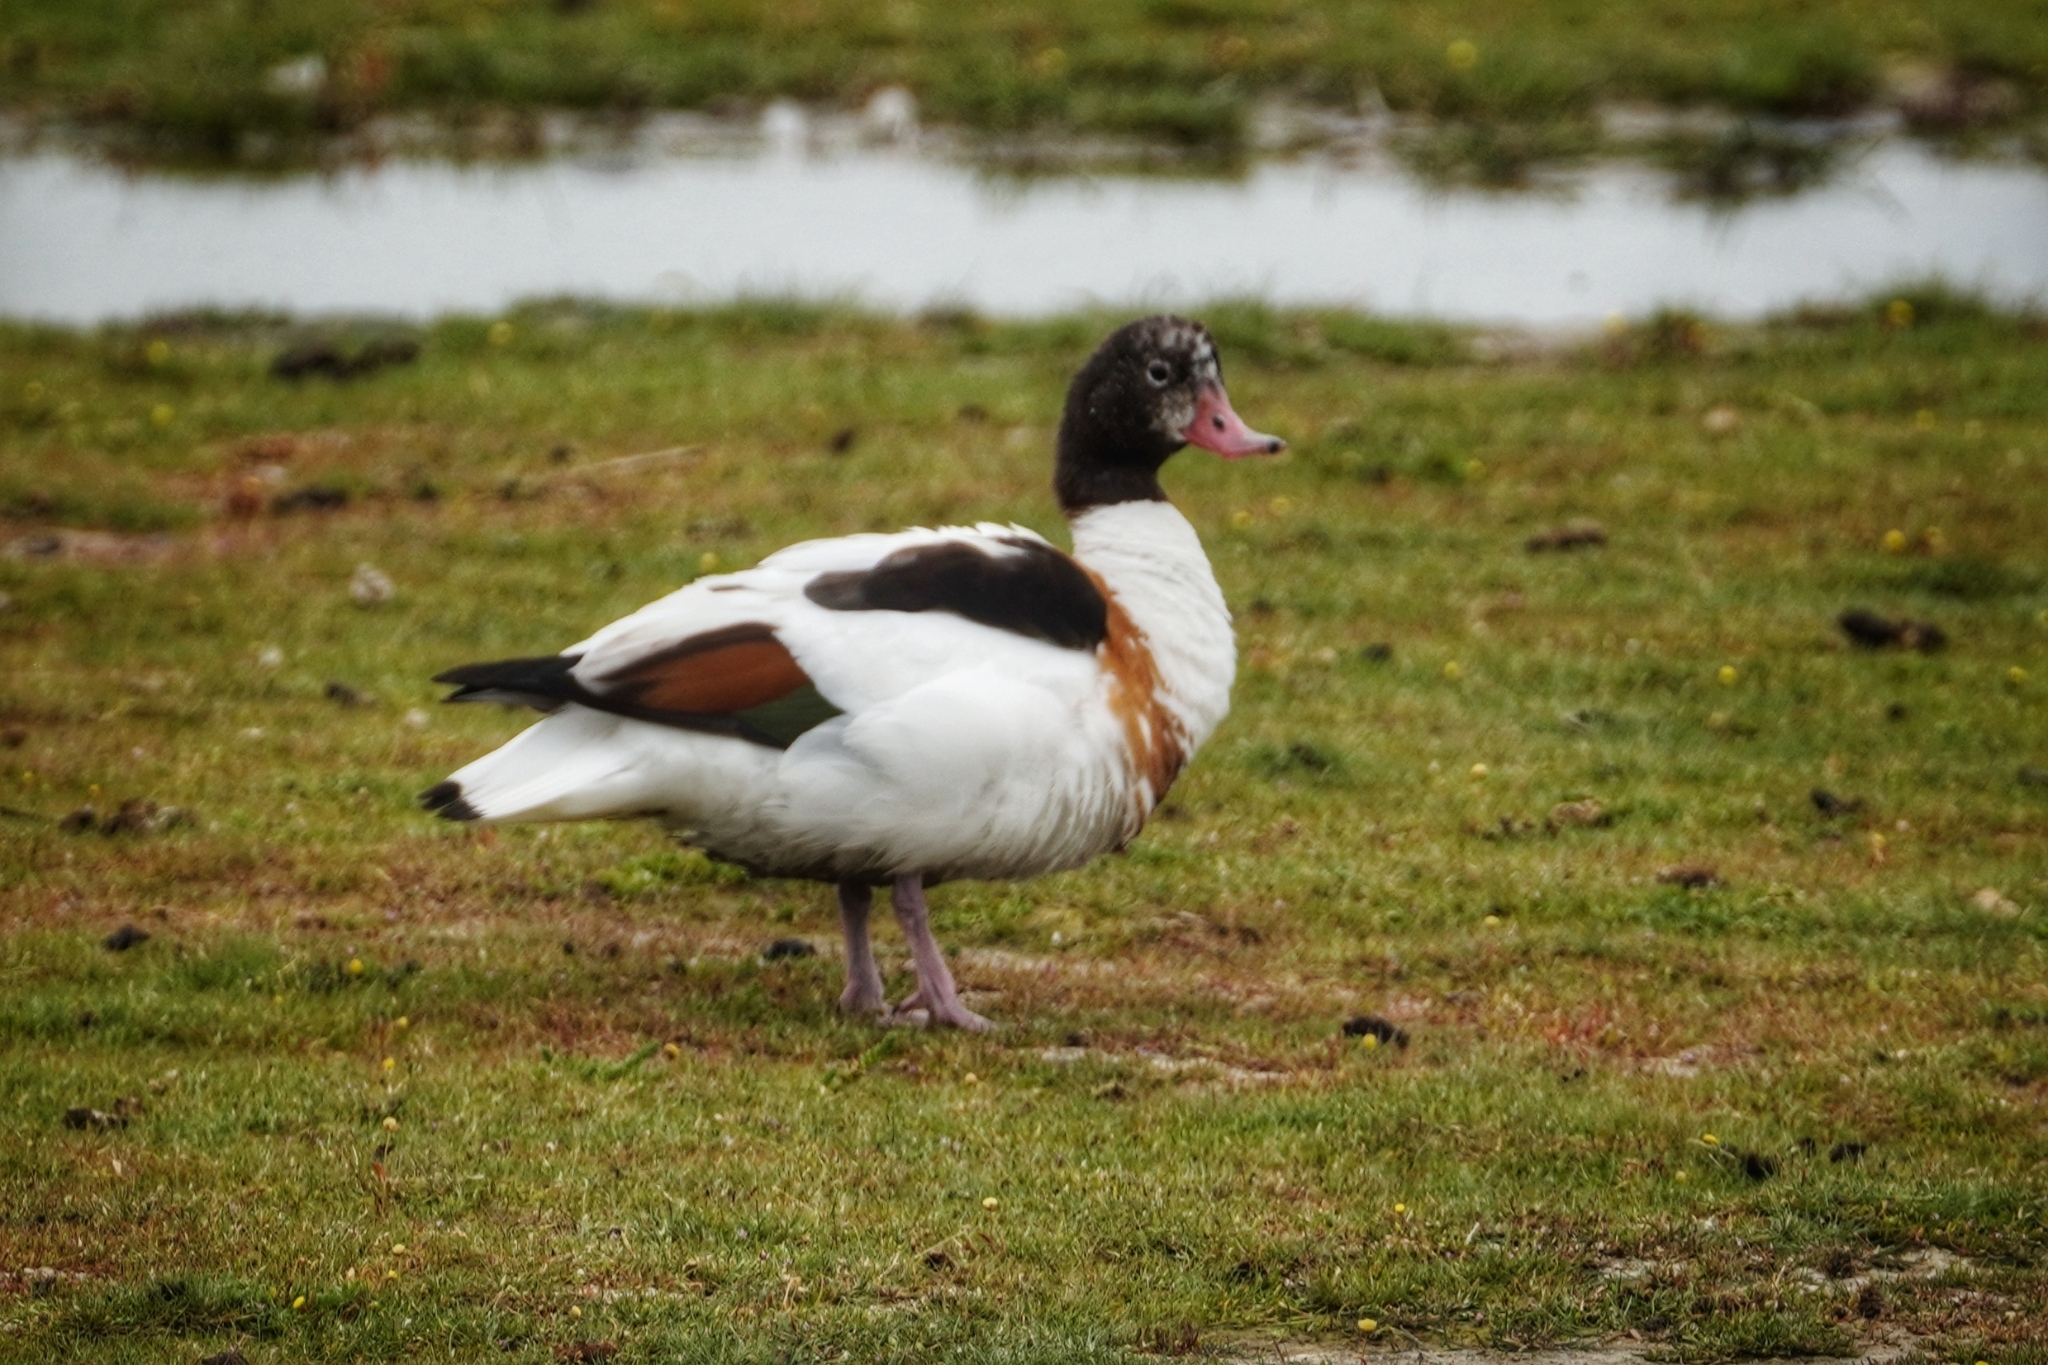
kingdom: Animalia
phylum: Chordata
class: Aves
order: Anseriformes
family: Anatidae
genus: Tadorna
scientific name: Tadorna tadorna
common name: Common shelduck
